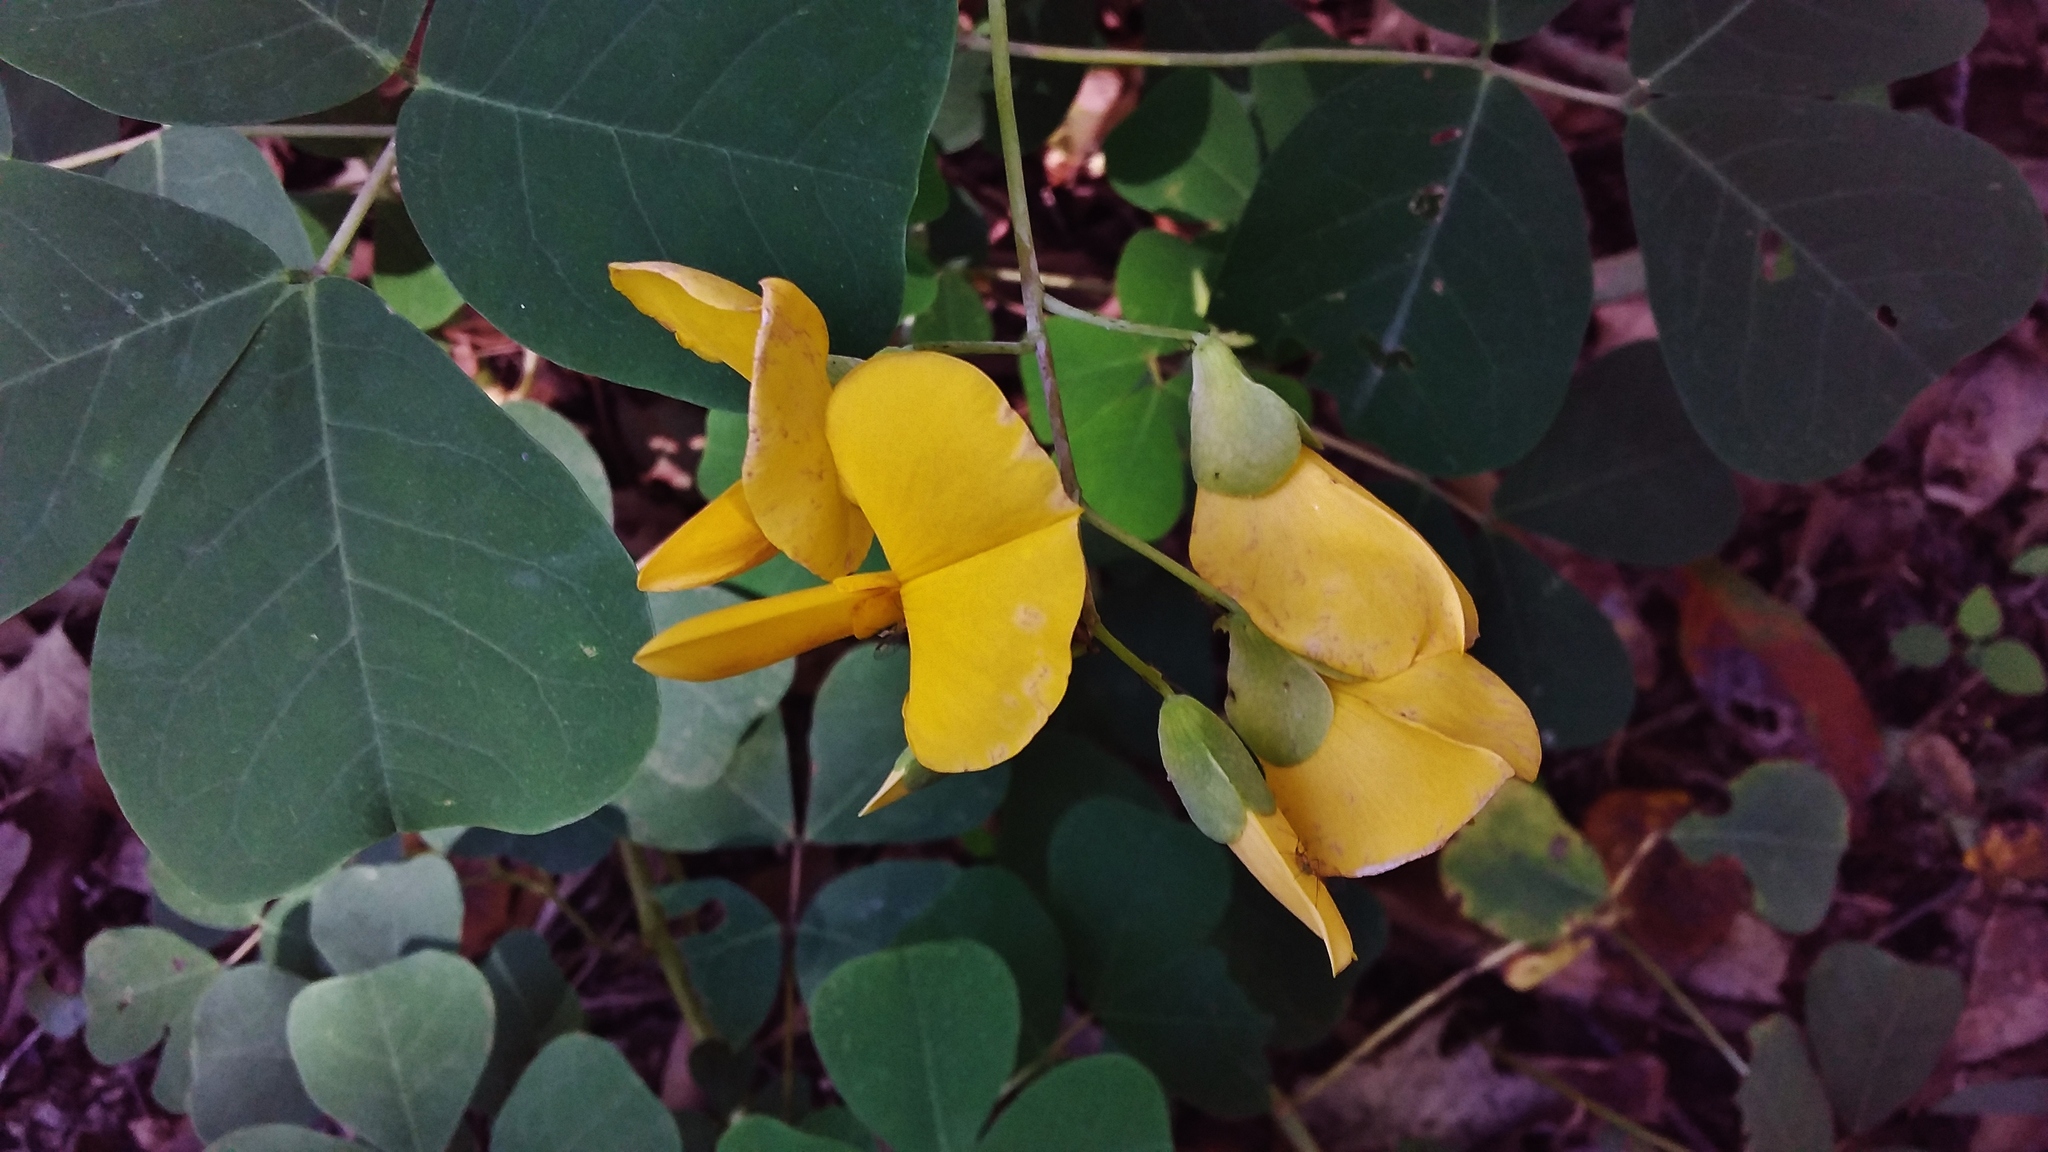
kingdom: Plantae
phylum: Tracheophyta
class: Magnoliopsida
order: Fabales
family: Fabaceae
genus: Amicia
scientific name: Amicia zygomeris
